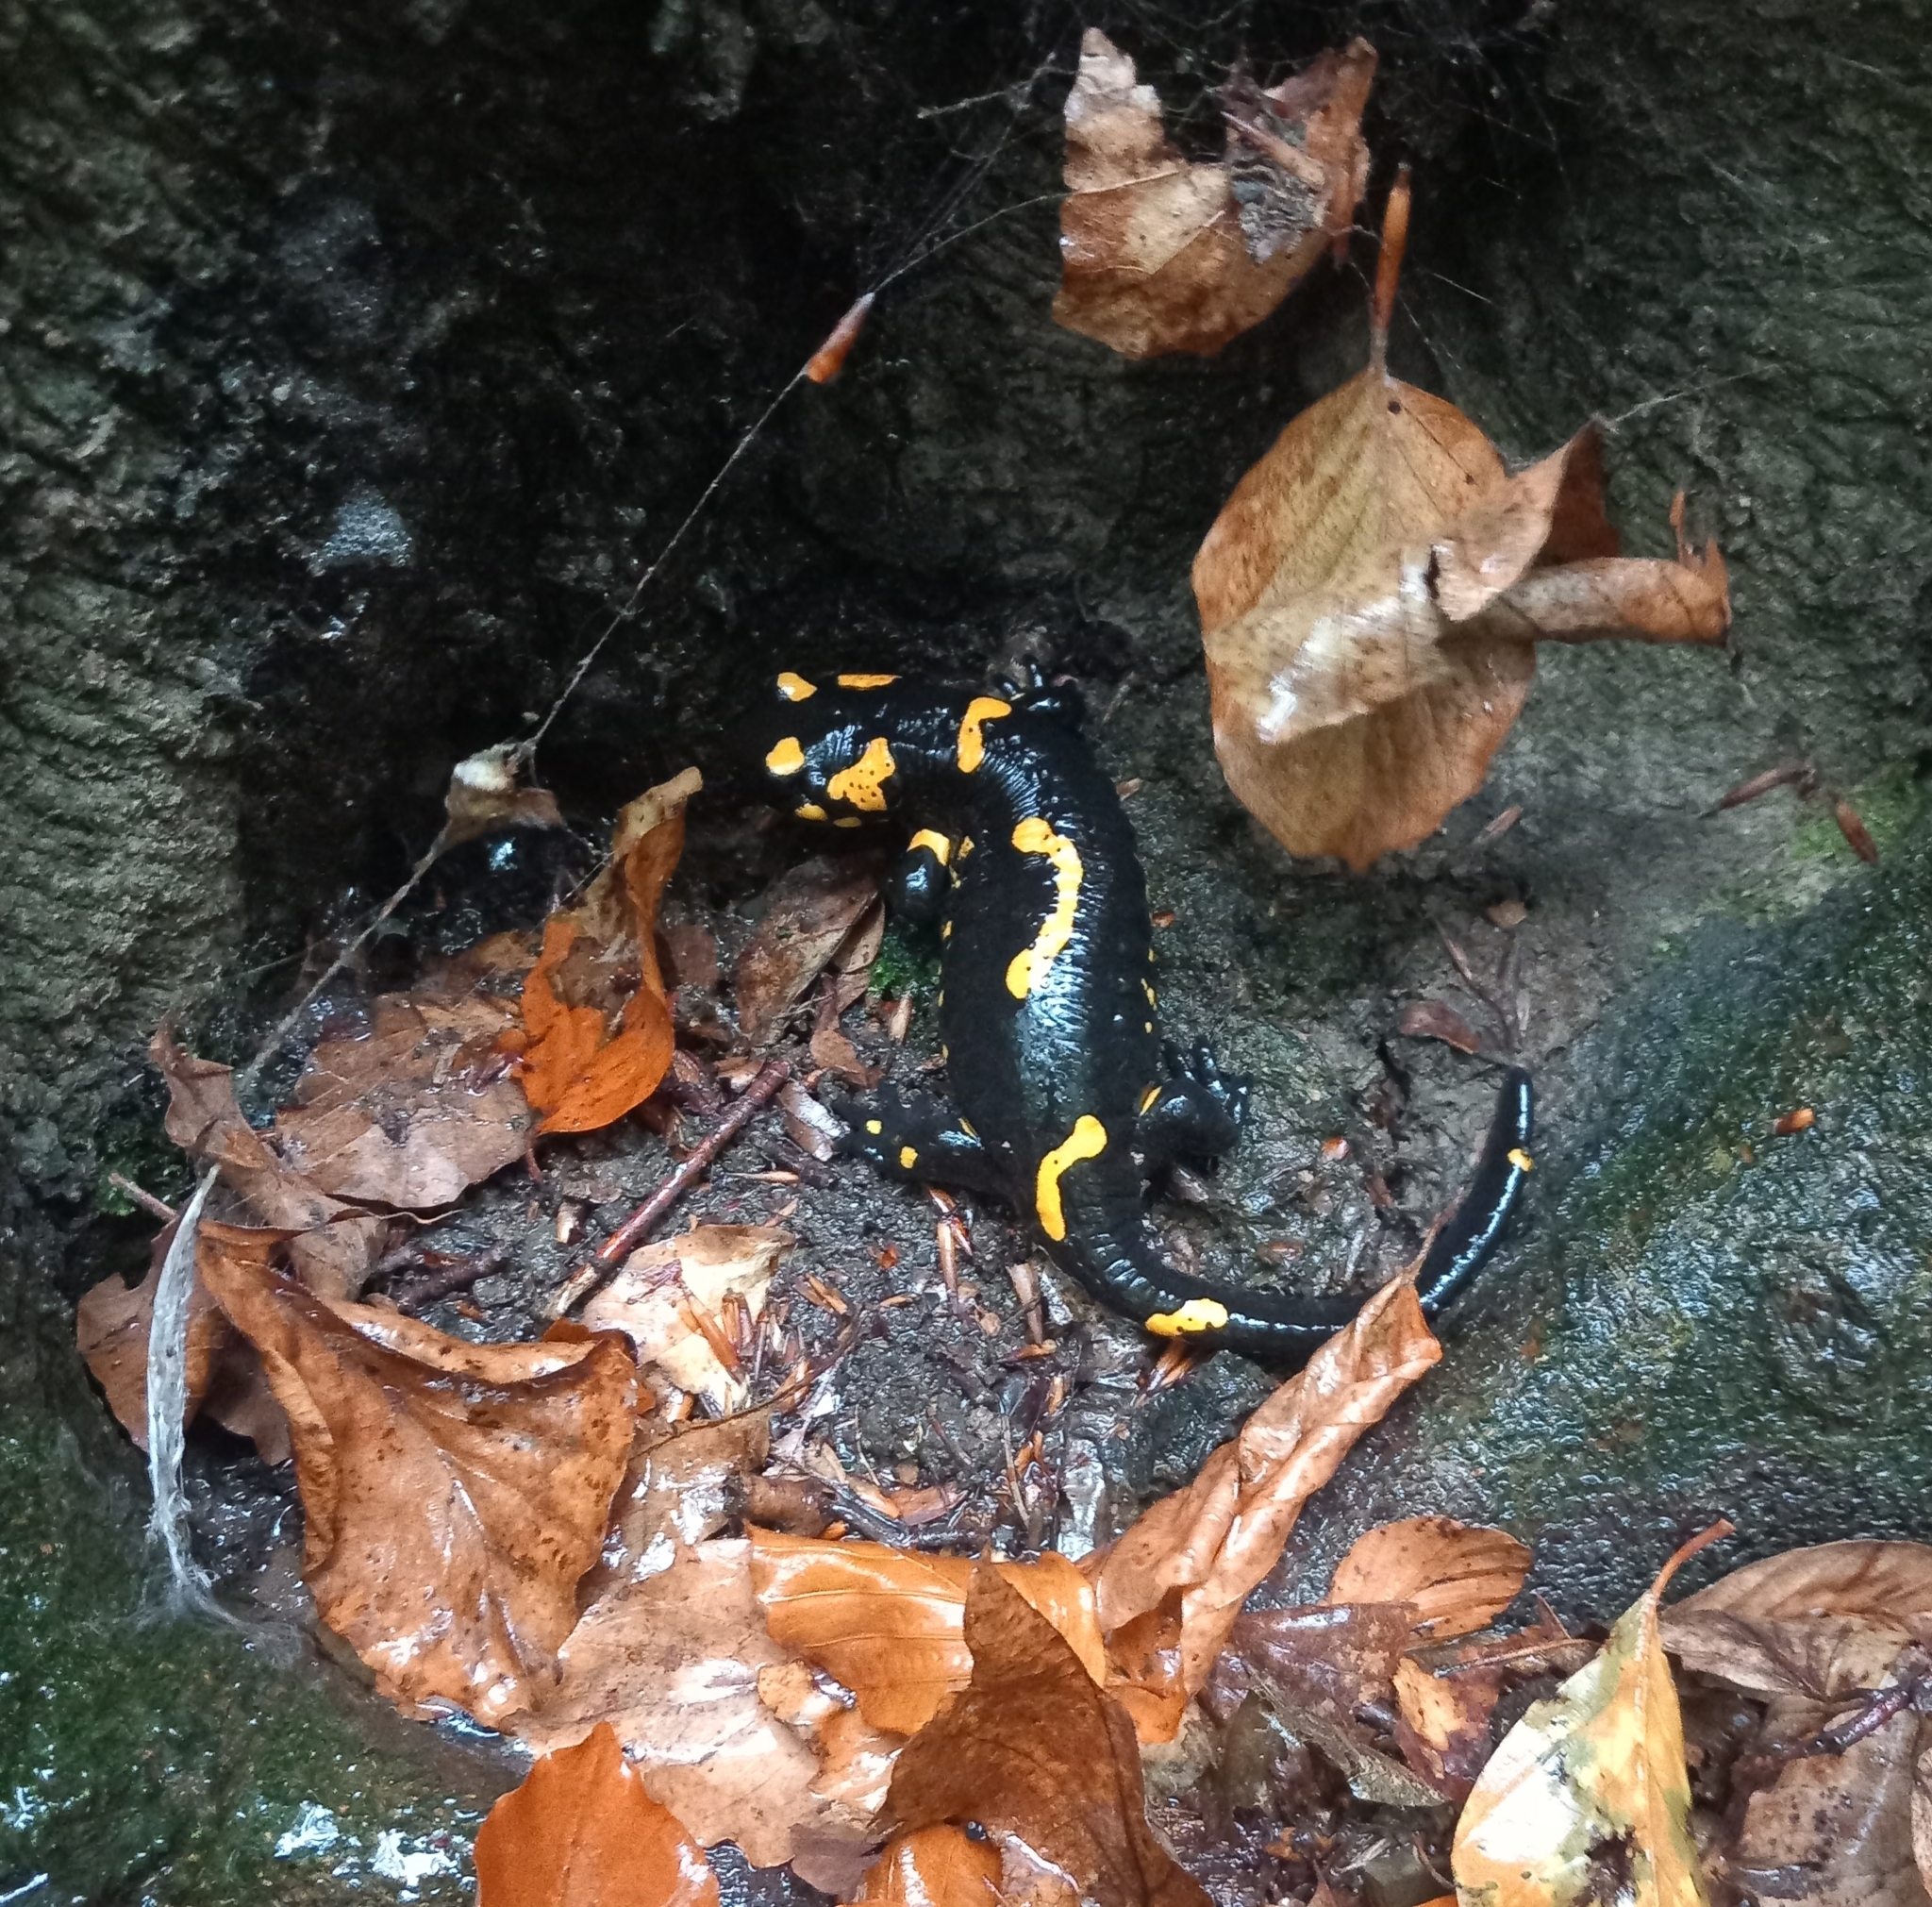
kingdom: Animalia
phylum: Chordata
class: Amphibia
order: Caudata
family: Salamandridae
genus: Salamandra
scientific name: Salamandra salamandra
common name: Fire salamander
